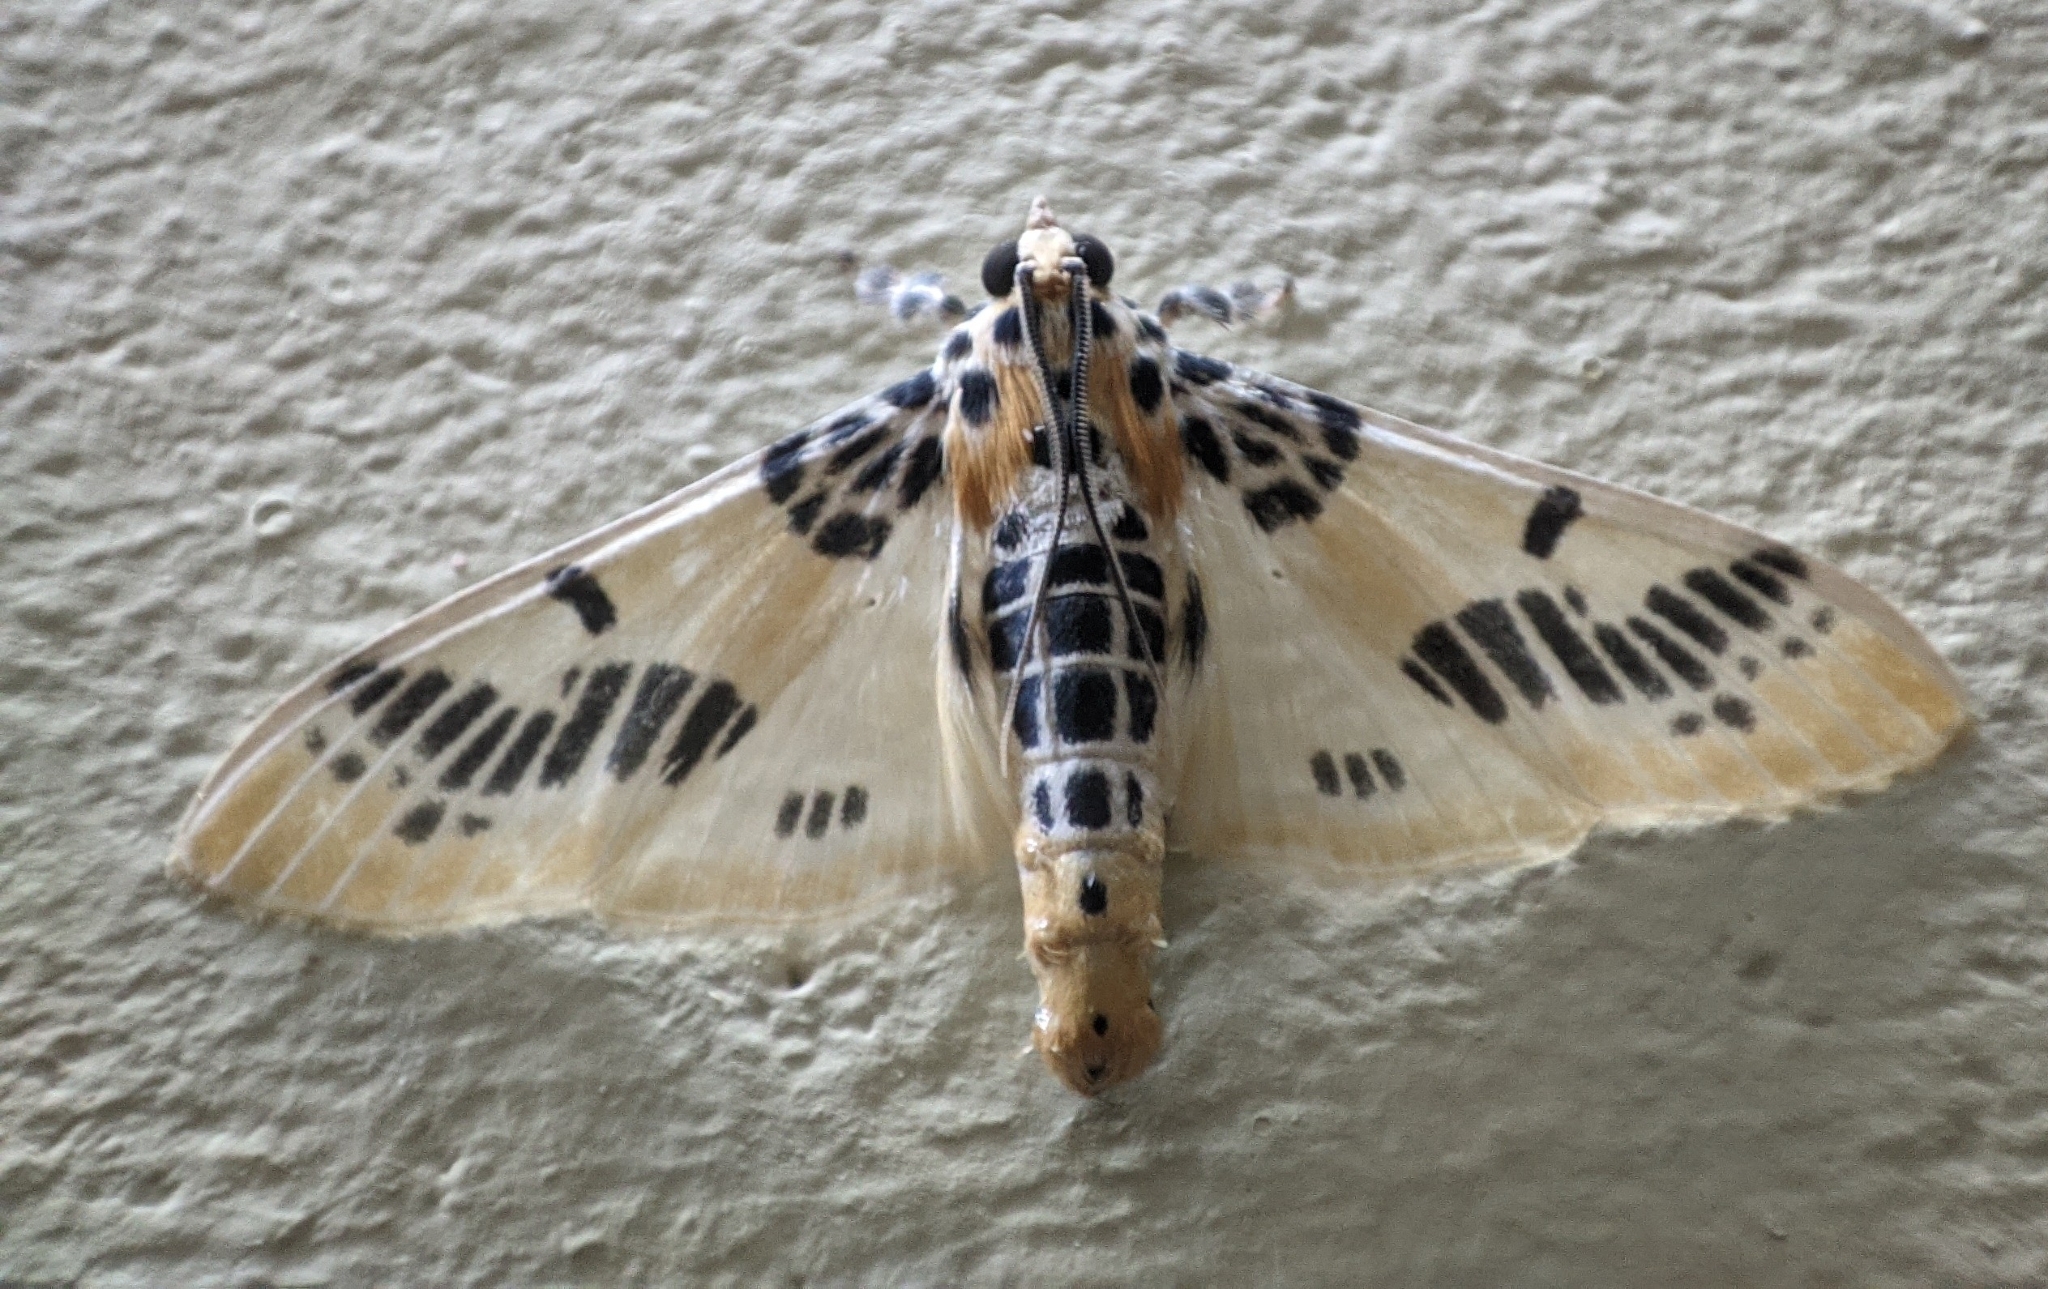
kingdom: Animalia
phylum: Arthropoda
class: Insecta
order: Lepidoptera
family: Crambidae
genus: Pachynoa
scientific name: Pachynoa spilosomoides
